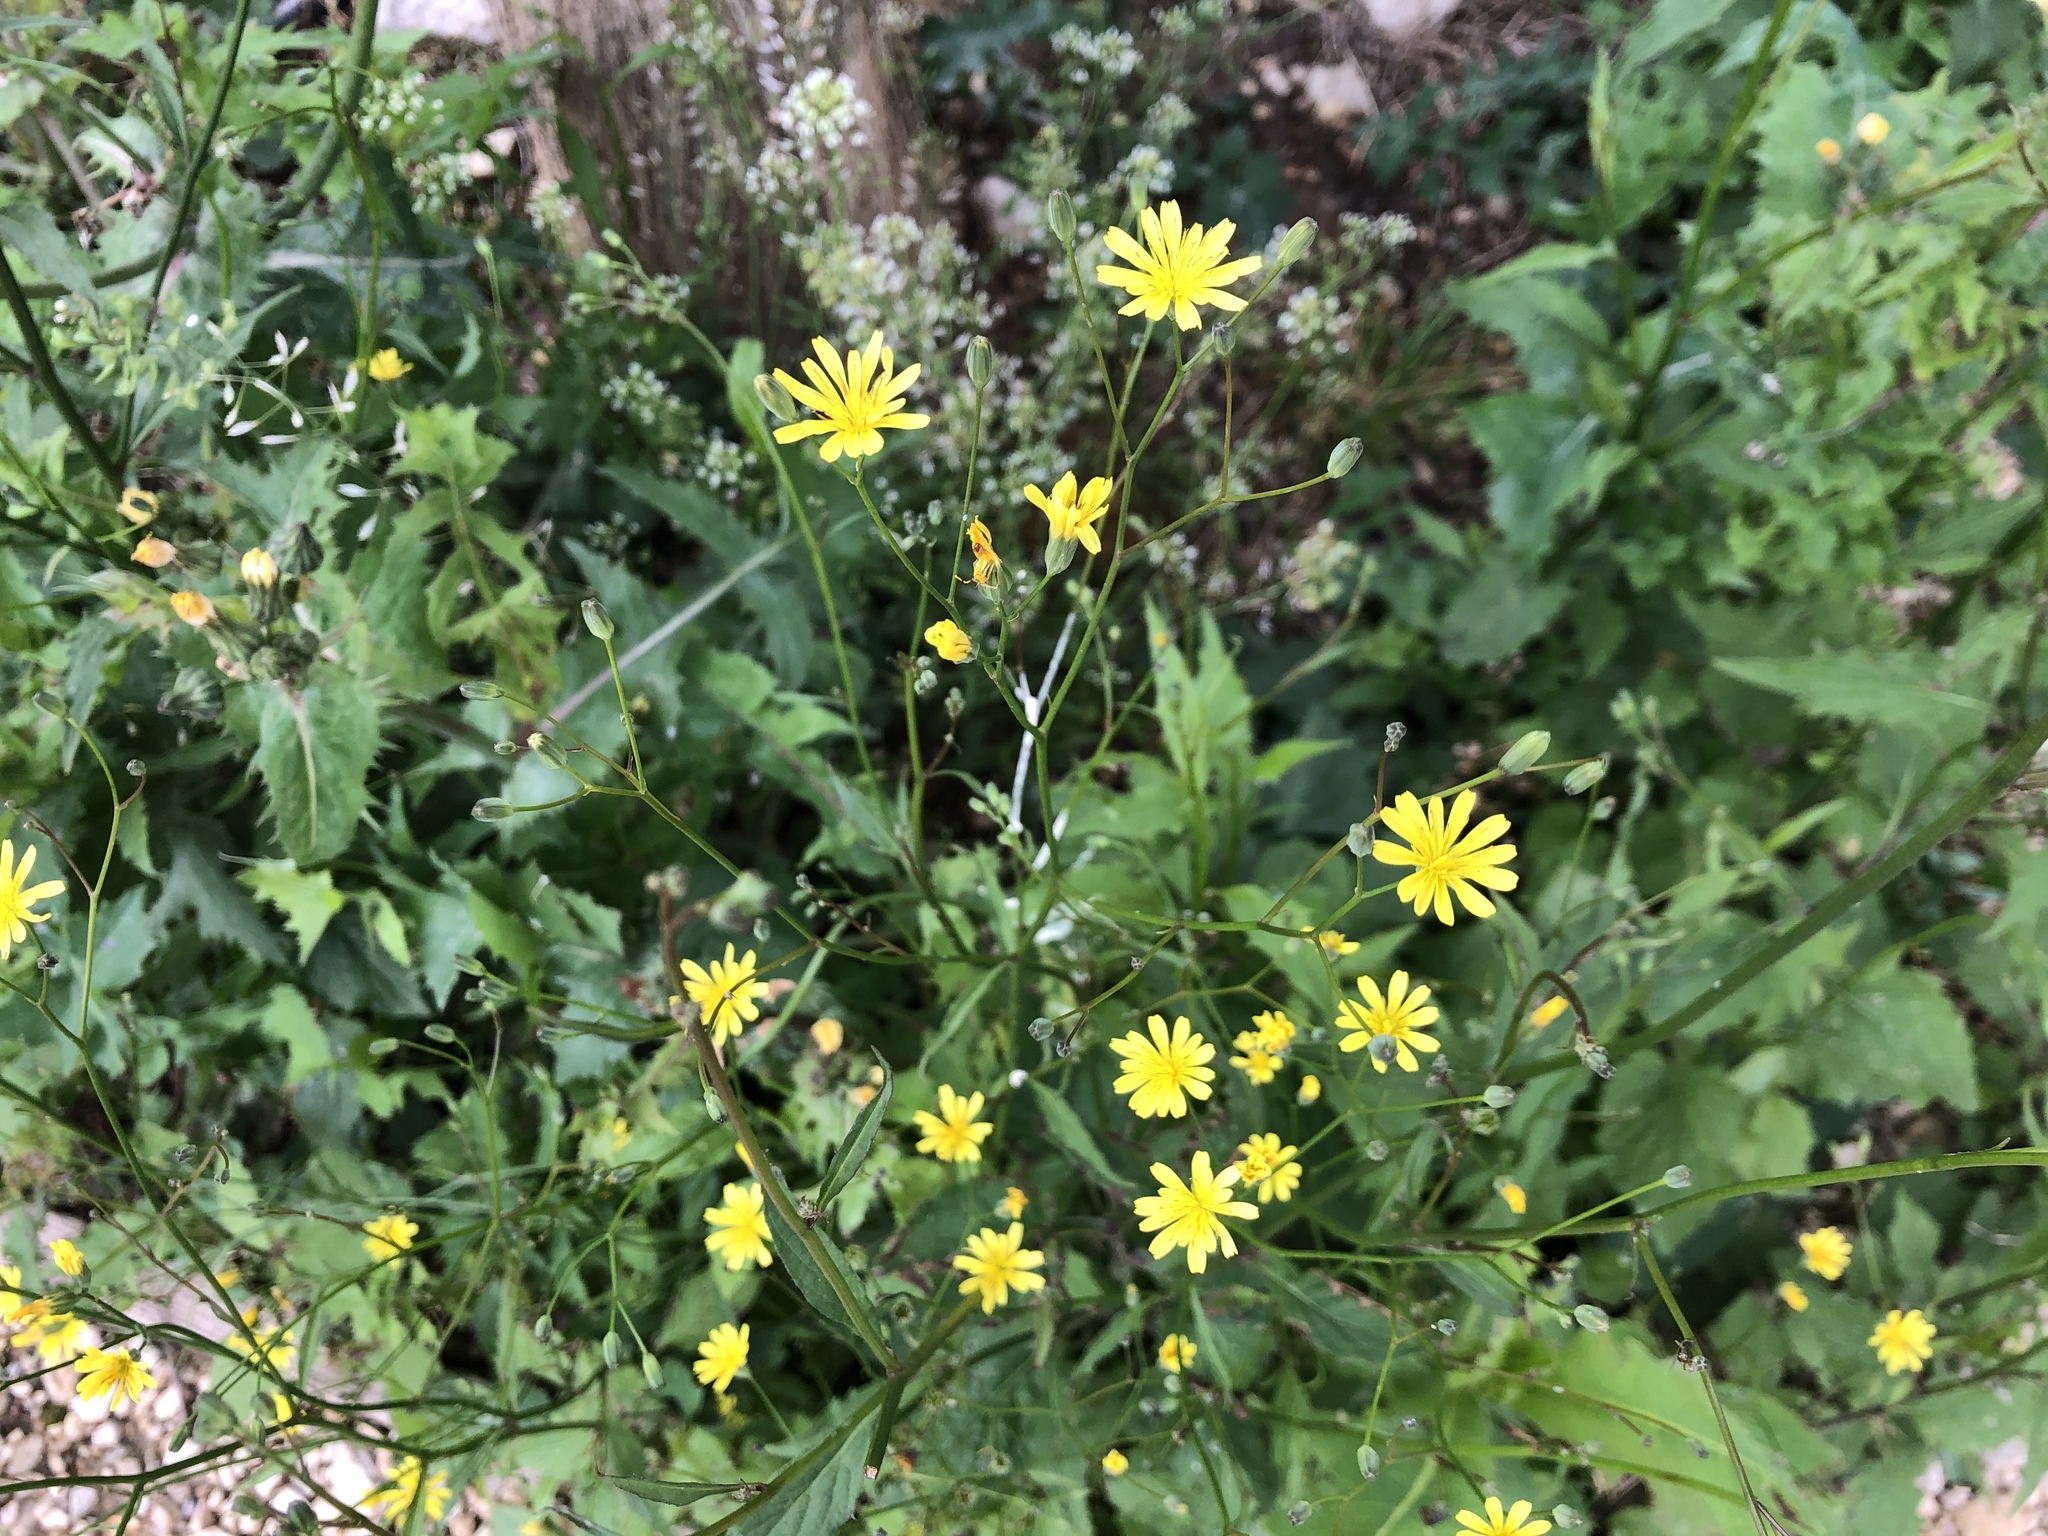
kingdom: Plantae
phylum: Tracheophyta
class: Magnoliopsida
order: Asterales
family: Asteraceae
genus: Lapsana
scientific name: Lapsana communis
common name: Nipplewort
